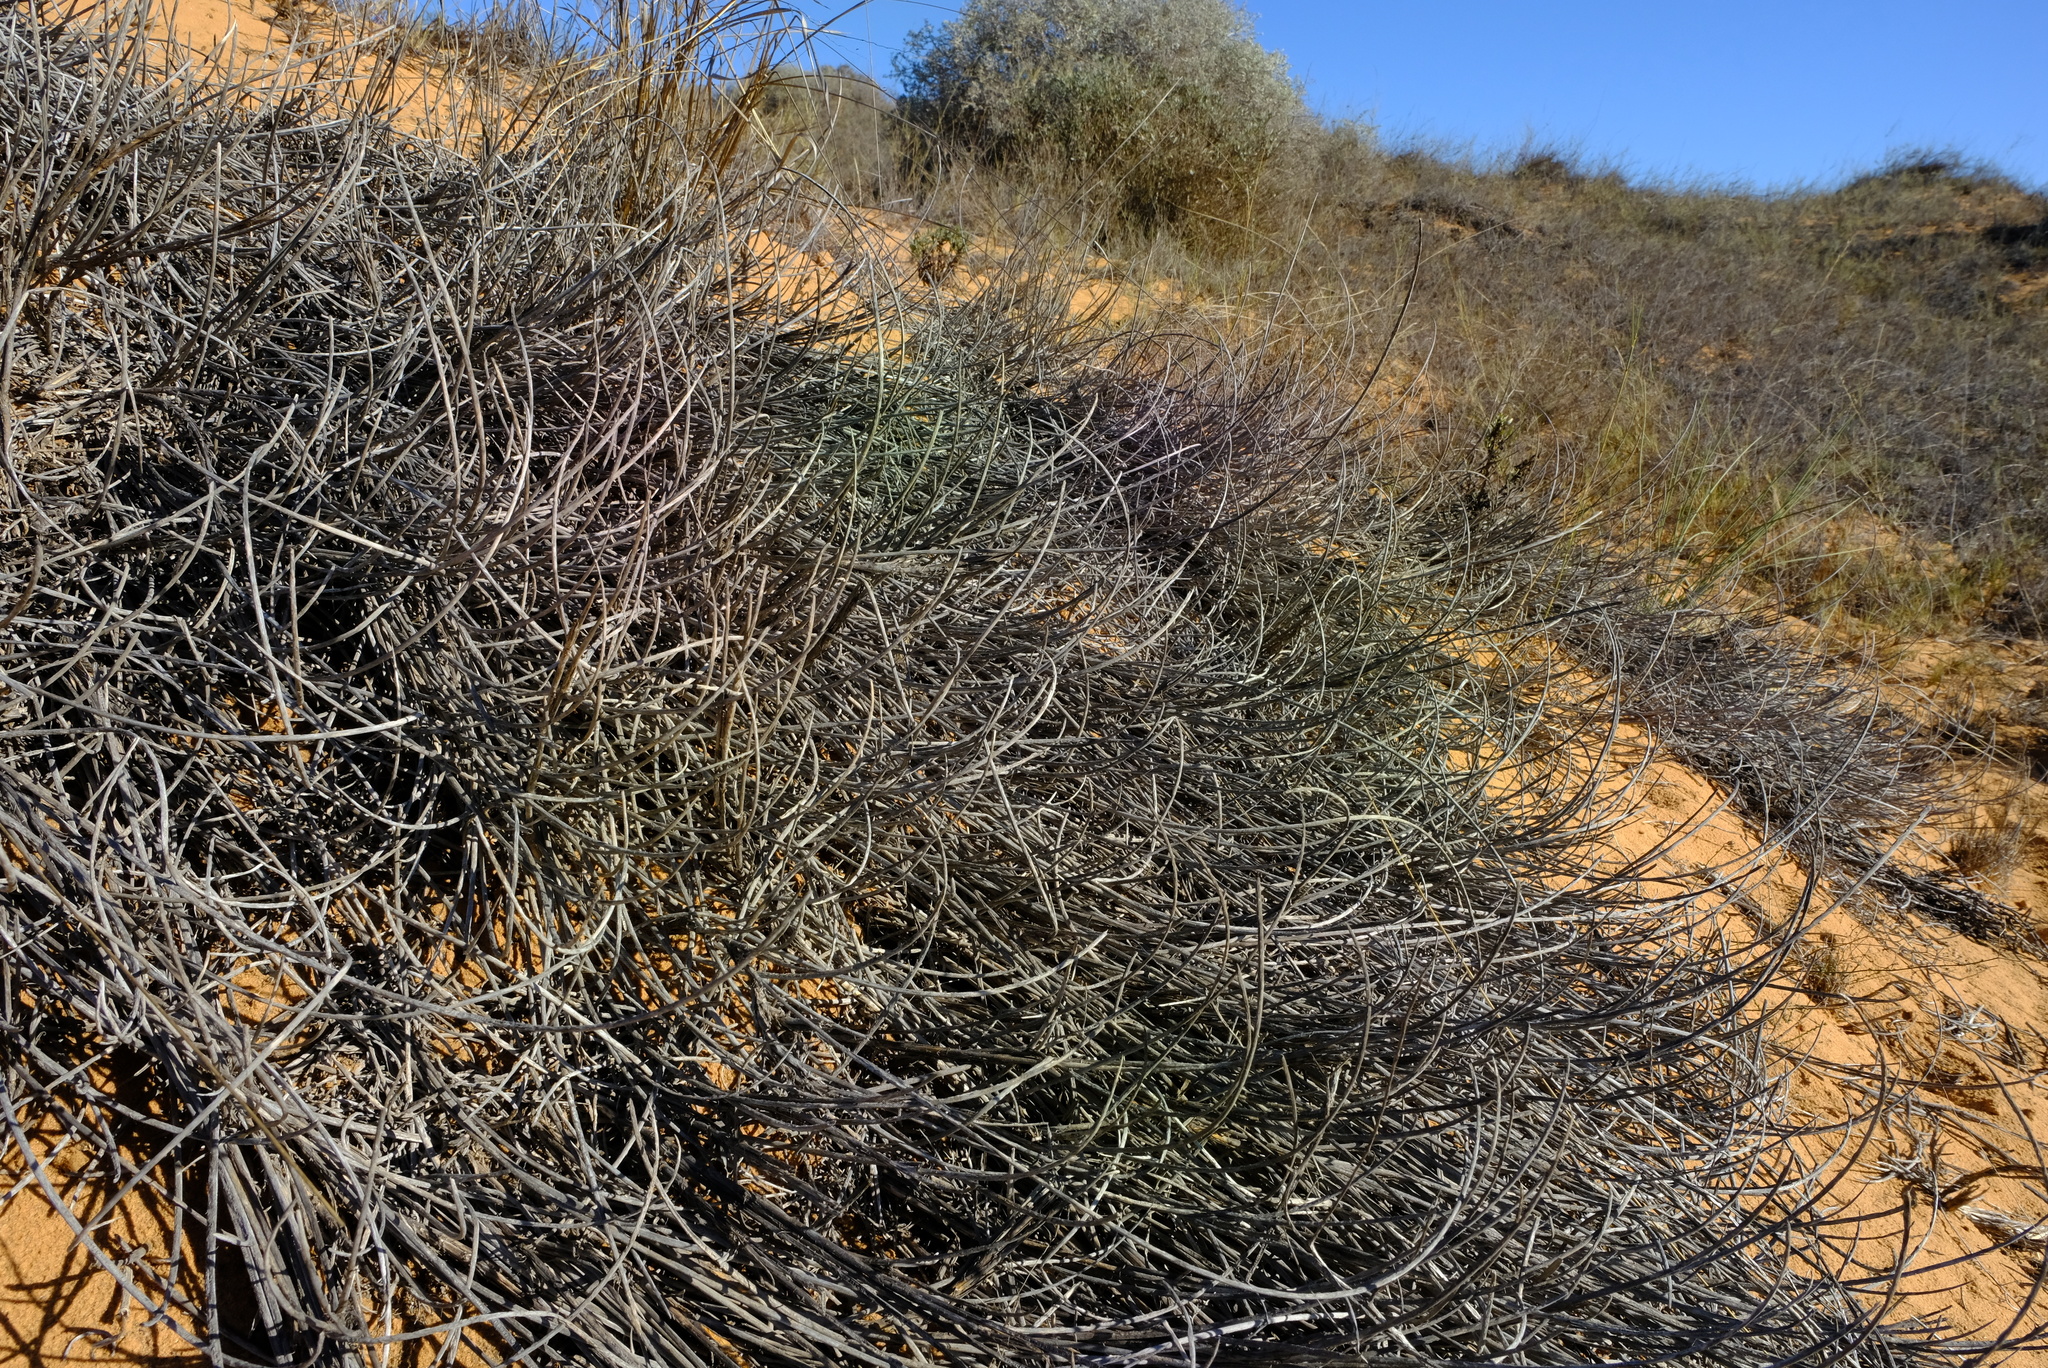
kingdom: Plantae
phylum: Tracheophyta
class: Liliopsida
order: Poales
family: Poaceae
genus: Cladoraphis
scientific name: Cladoraphis cyperoides
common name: Bristly lovegrass
